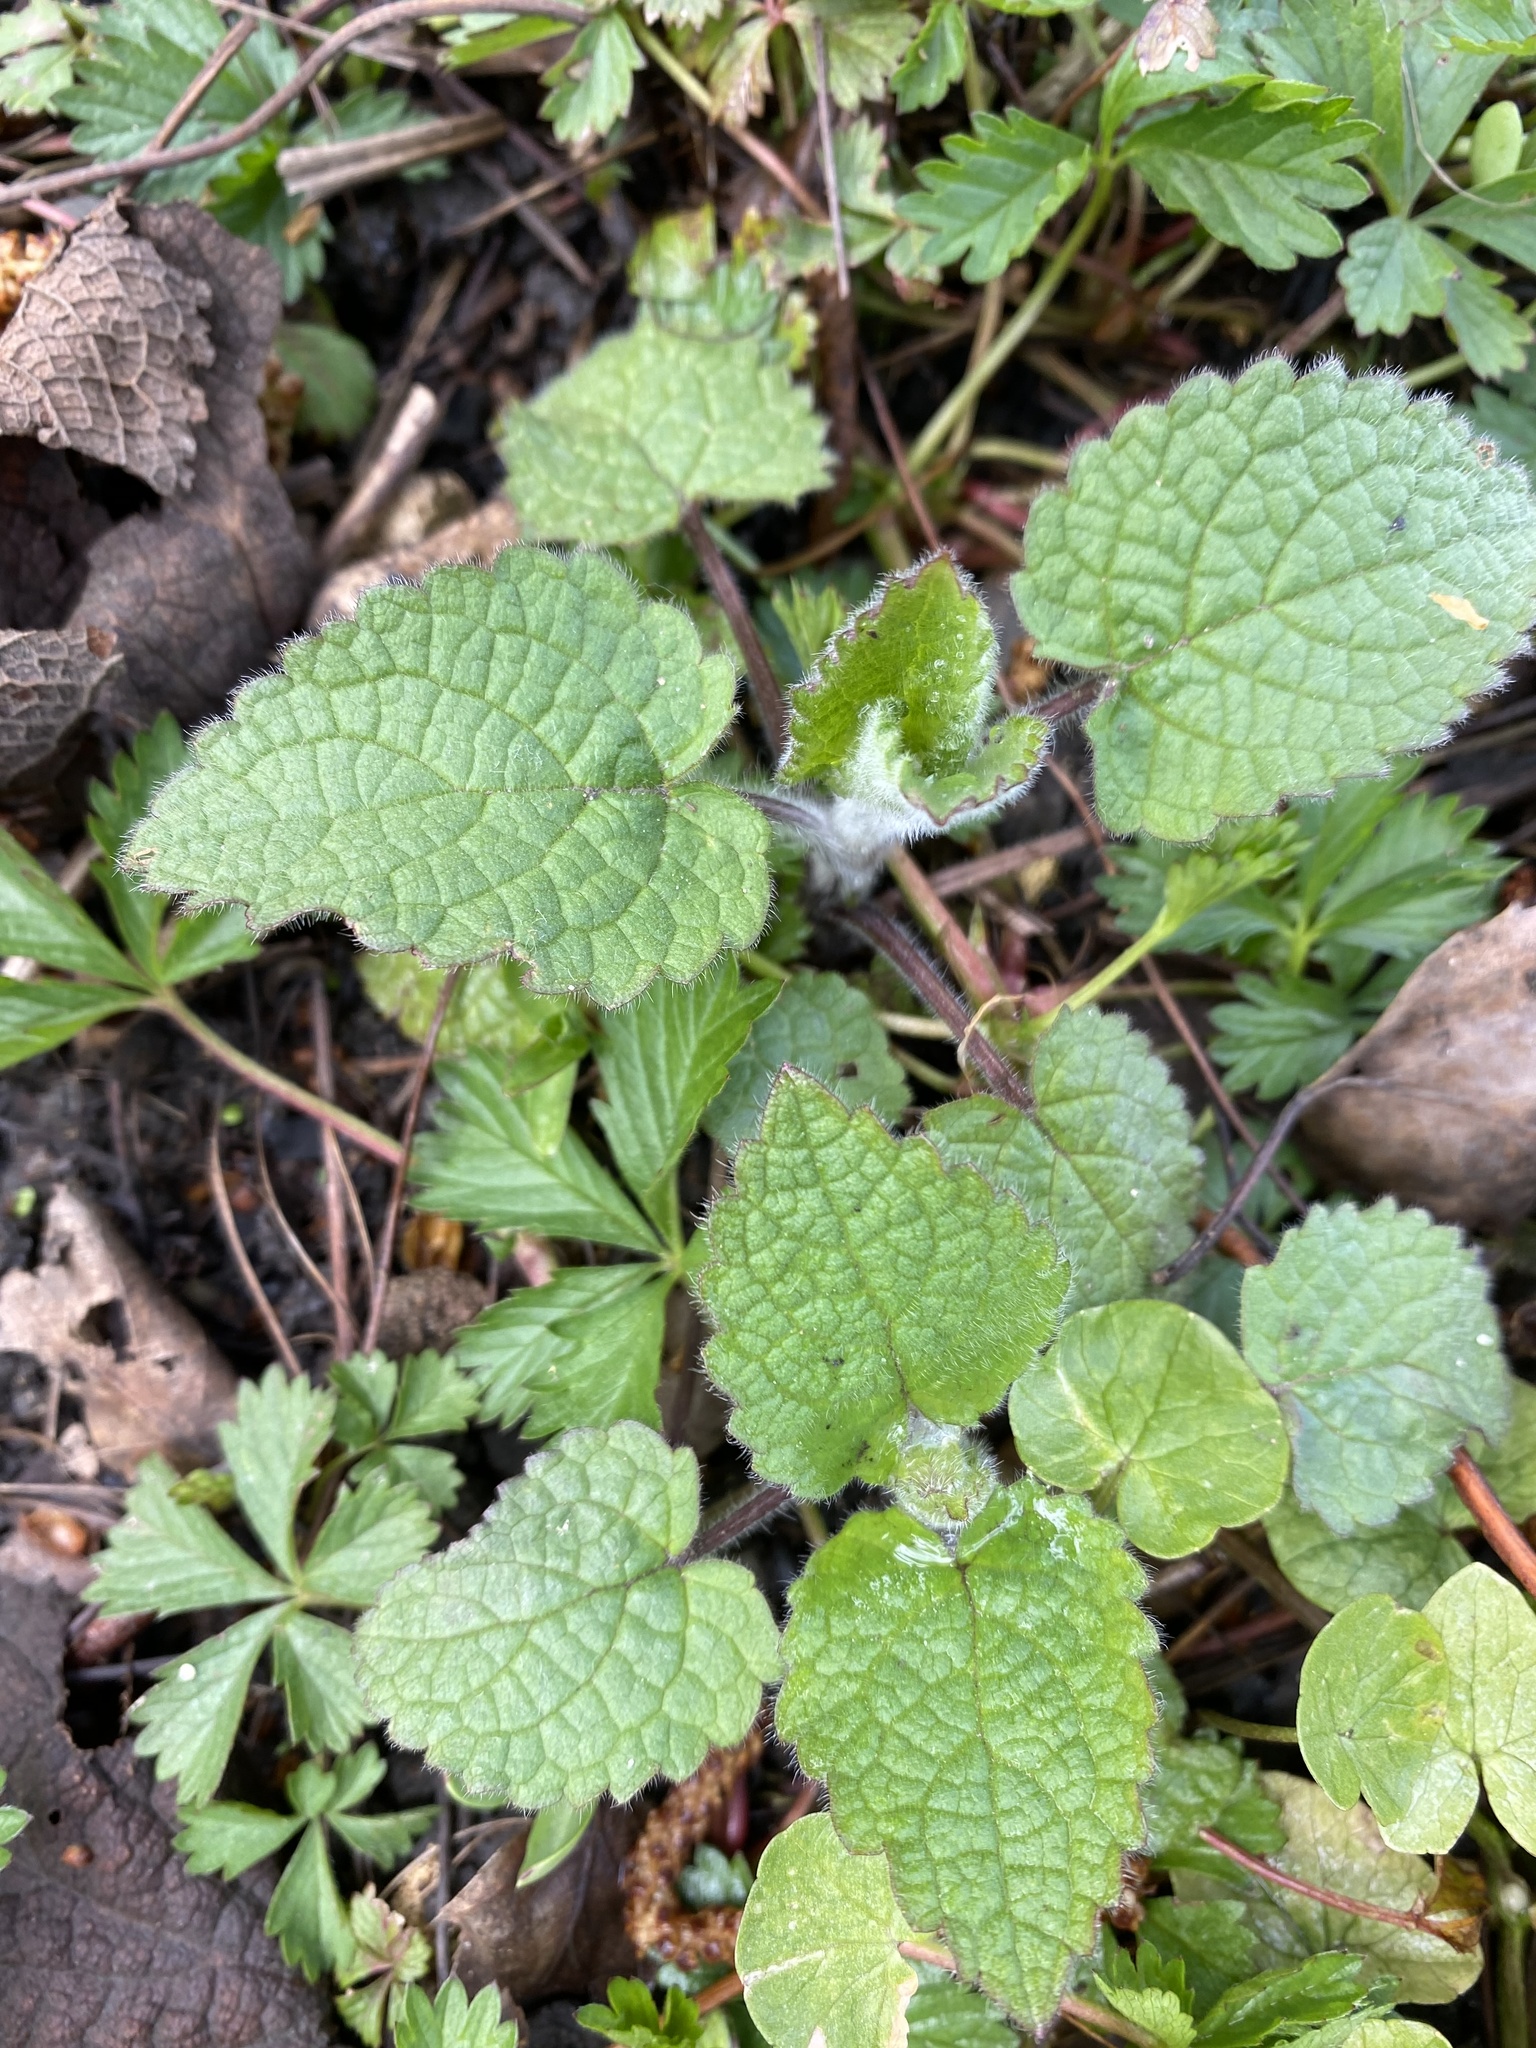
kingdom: Plantae
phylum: Tracheophyta
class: Magnoliopsida
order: Lamiales
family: Lamiaceae
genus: Stachys
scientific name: Stachys sylvatica
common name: Hedge woundwort
